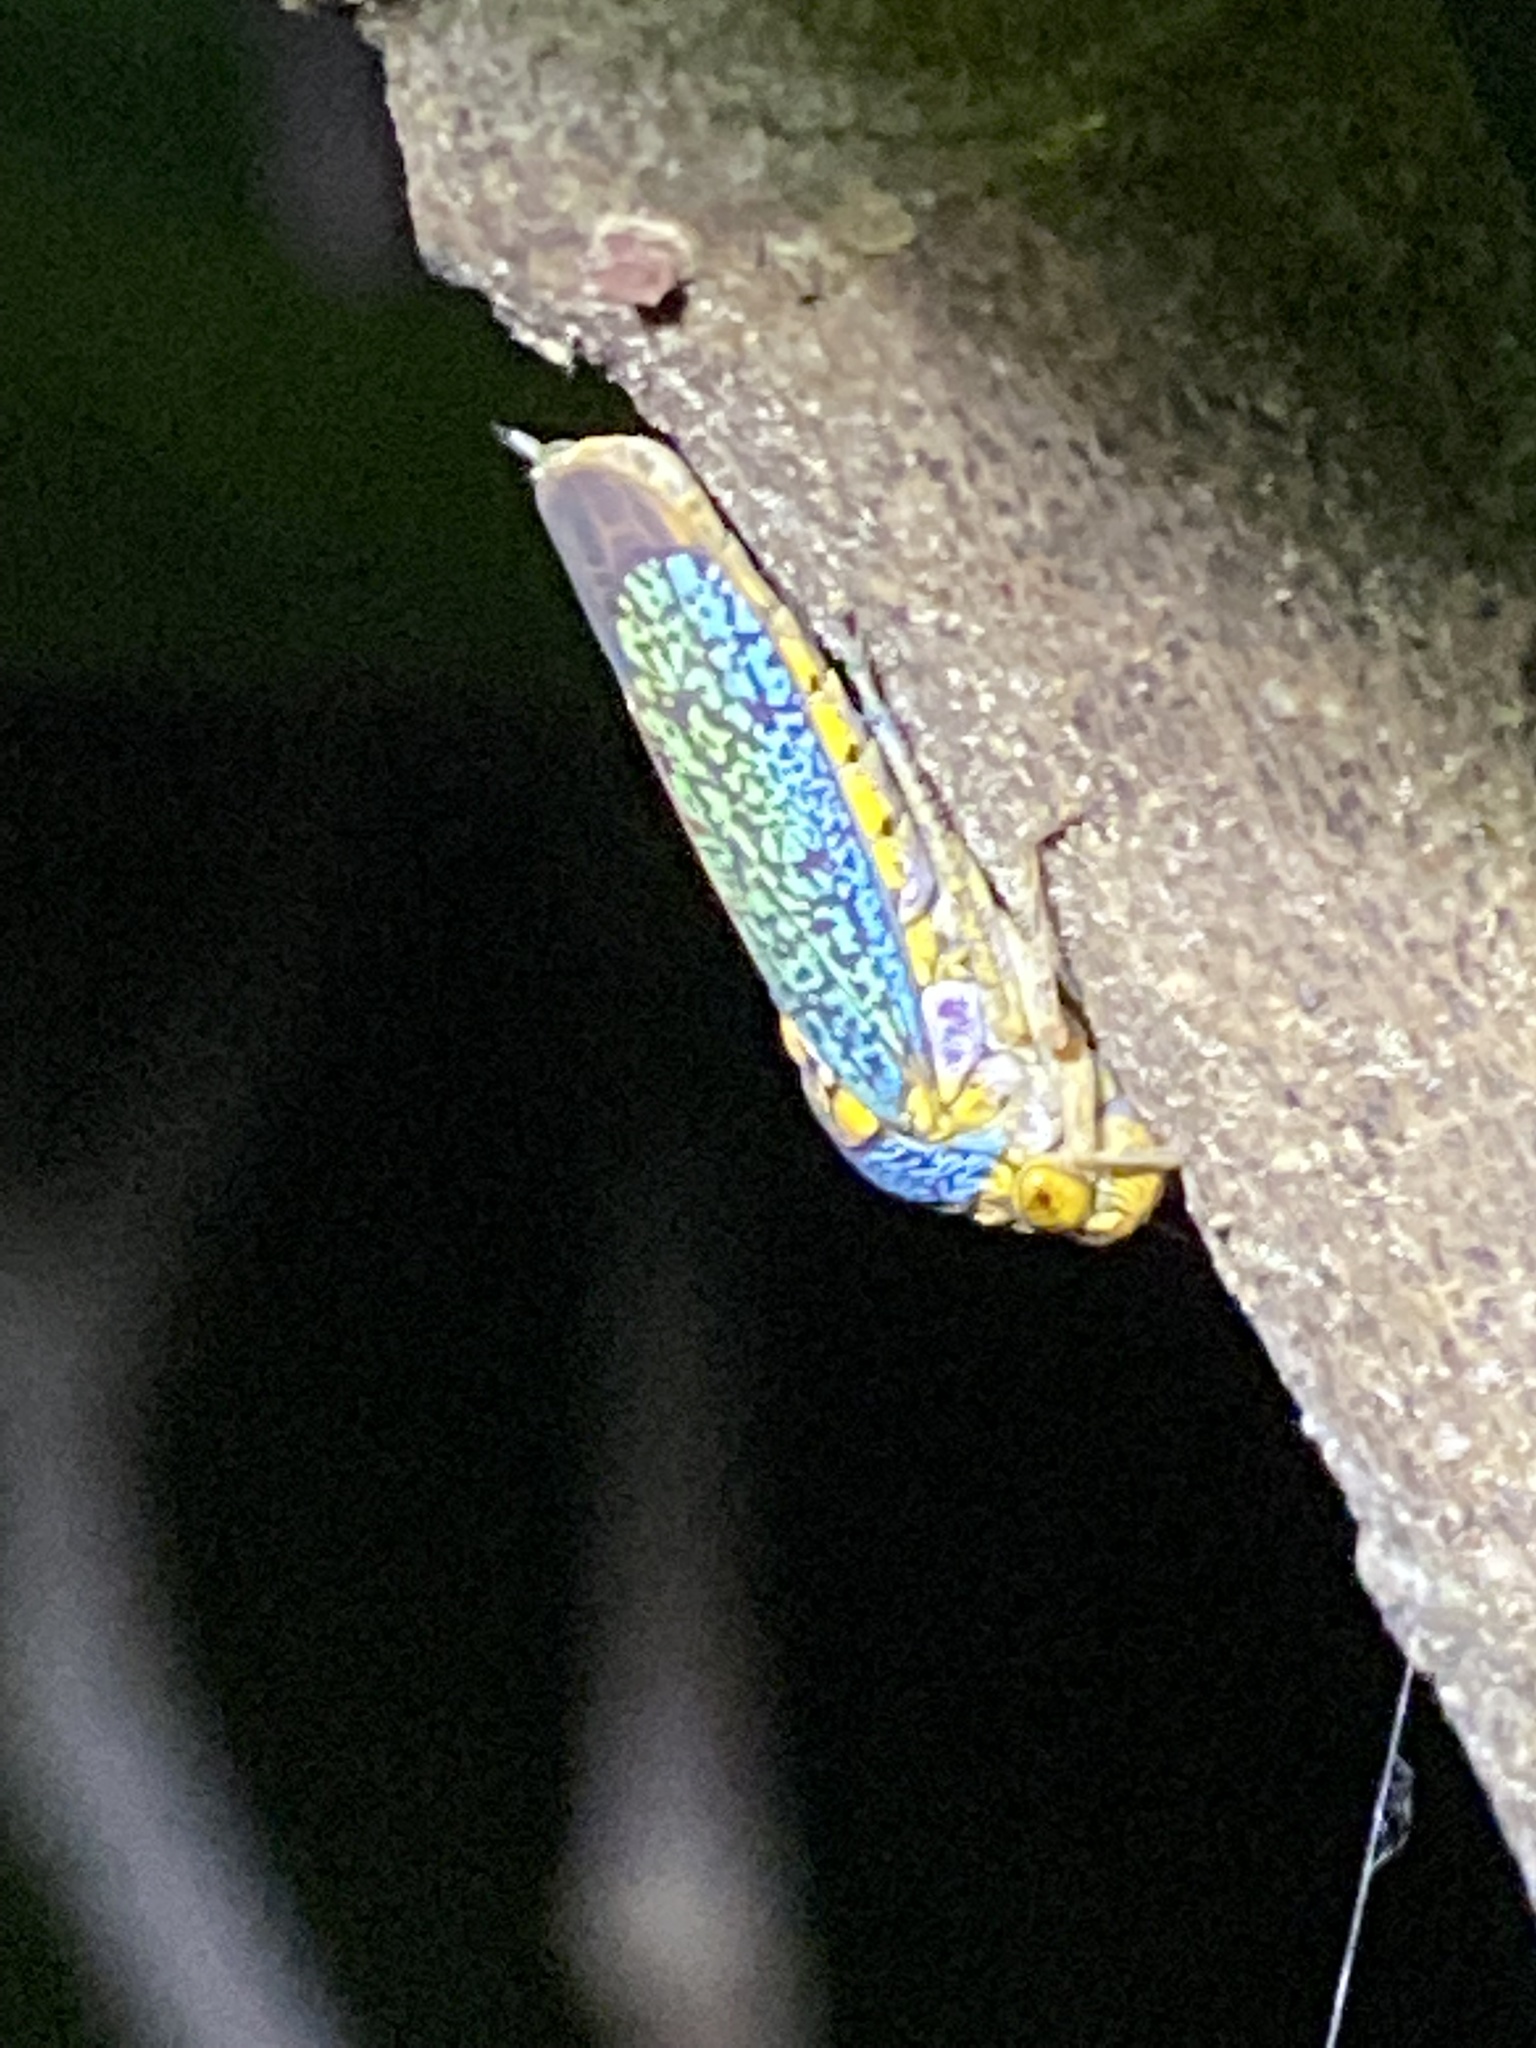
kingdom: Animalia
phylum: Arthropoda
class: Insecta
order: Hemiptera
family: Cicadellidae
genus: Oncometopia
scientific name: Oncometopia orbona
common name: Broad-headed sharpshooter
